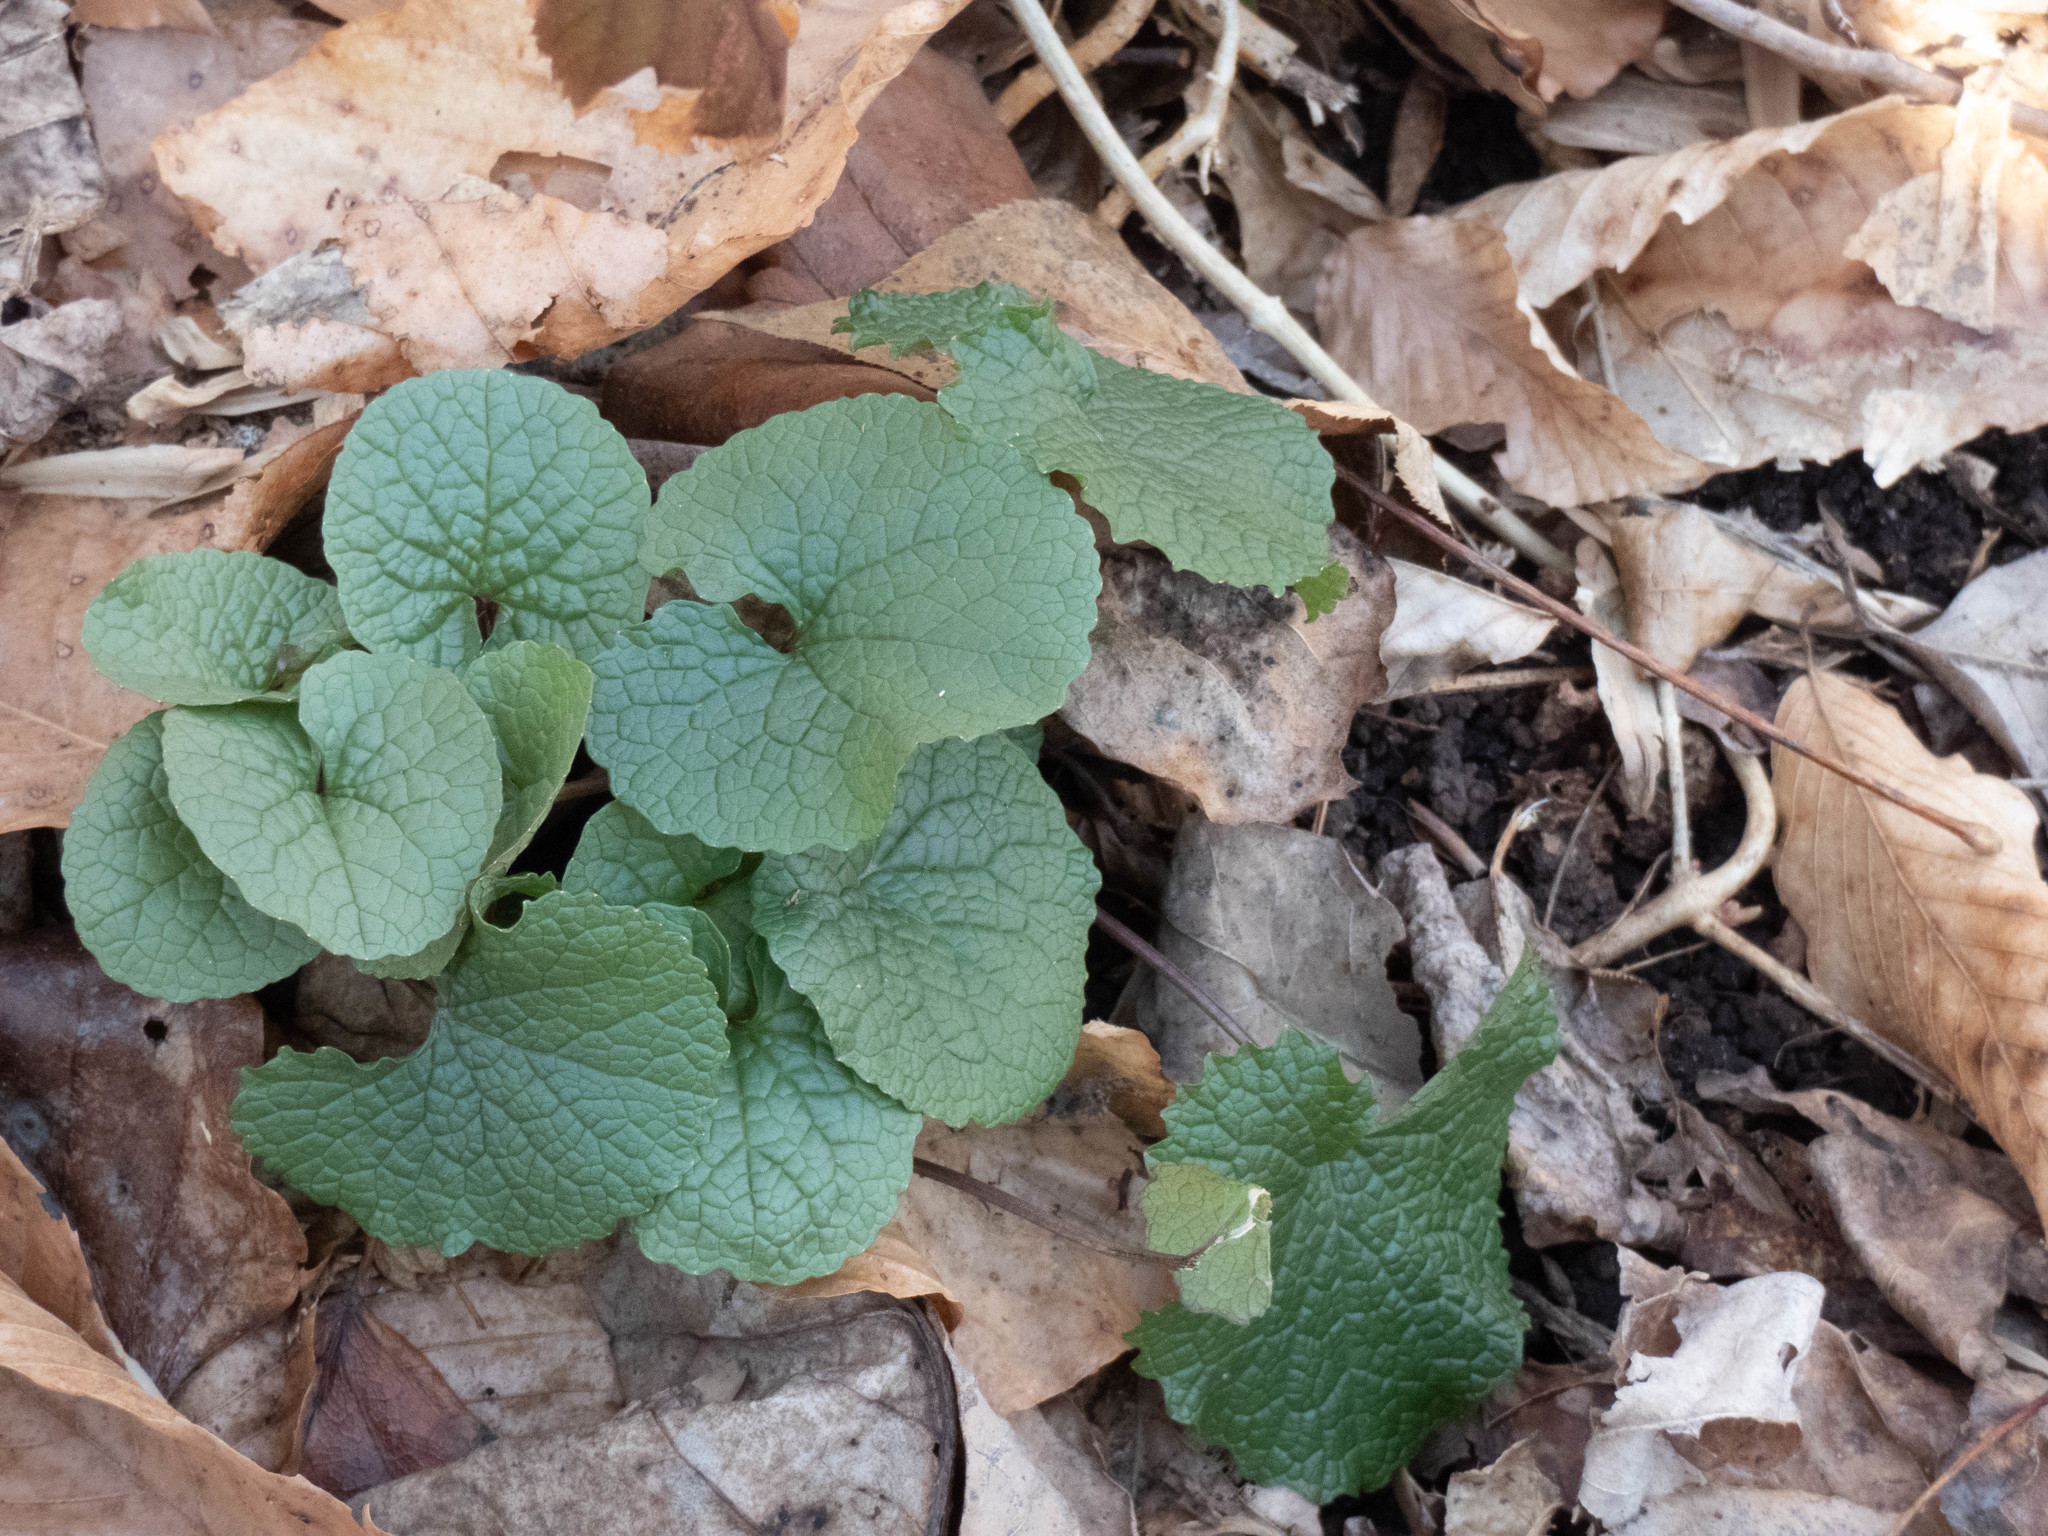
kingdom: Plantae
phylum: Tracheophyta
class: Magnoliopsida
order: Brassicales
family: Brassicaceae
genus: Alliaria
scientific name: Alliaria petiolata
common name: Garlic mustard
